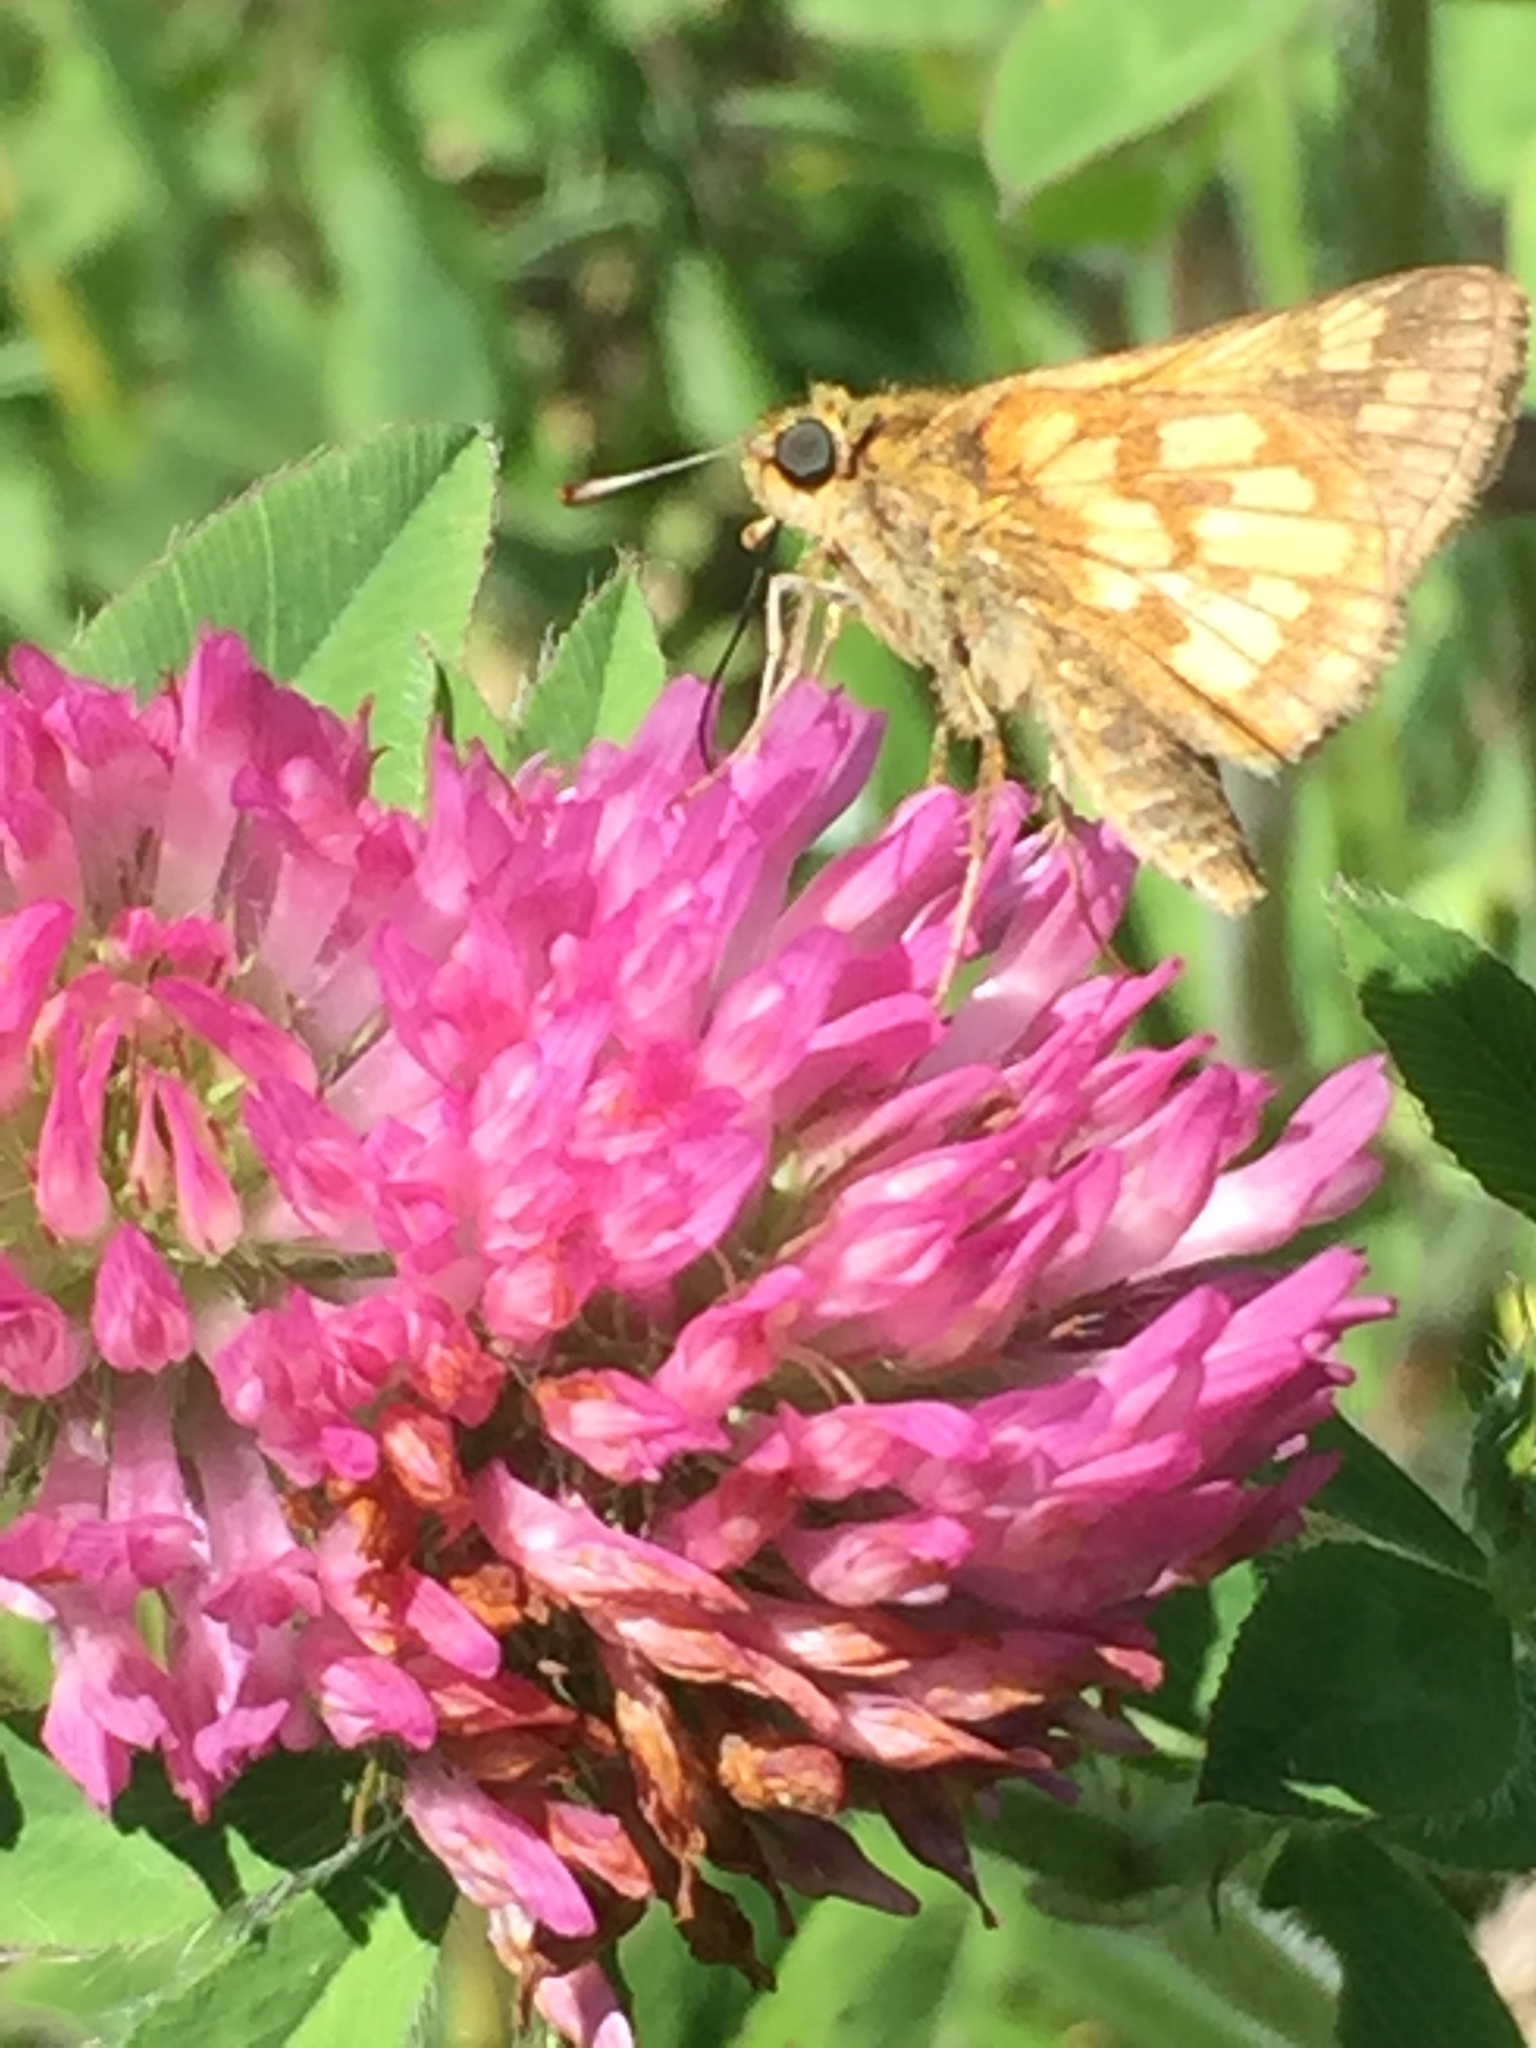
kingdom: Animalia
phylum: Arthropoda
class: Insecta
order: Lepidoptera
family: Hesperiidae
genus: Polites
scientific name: Polites coras
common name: Peck's skipper
